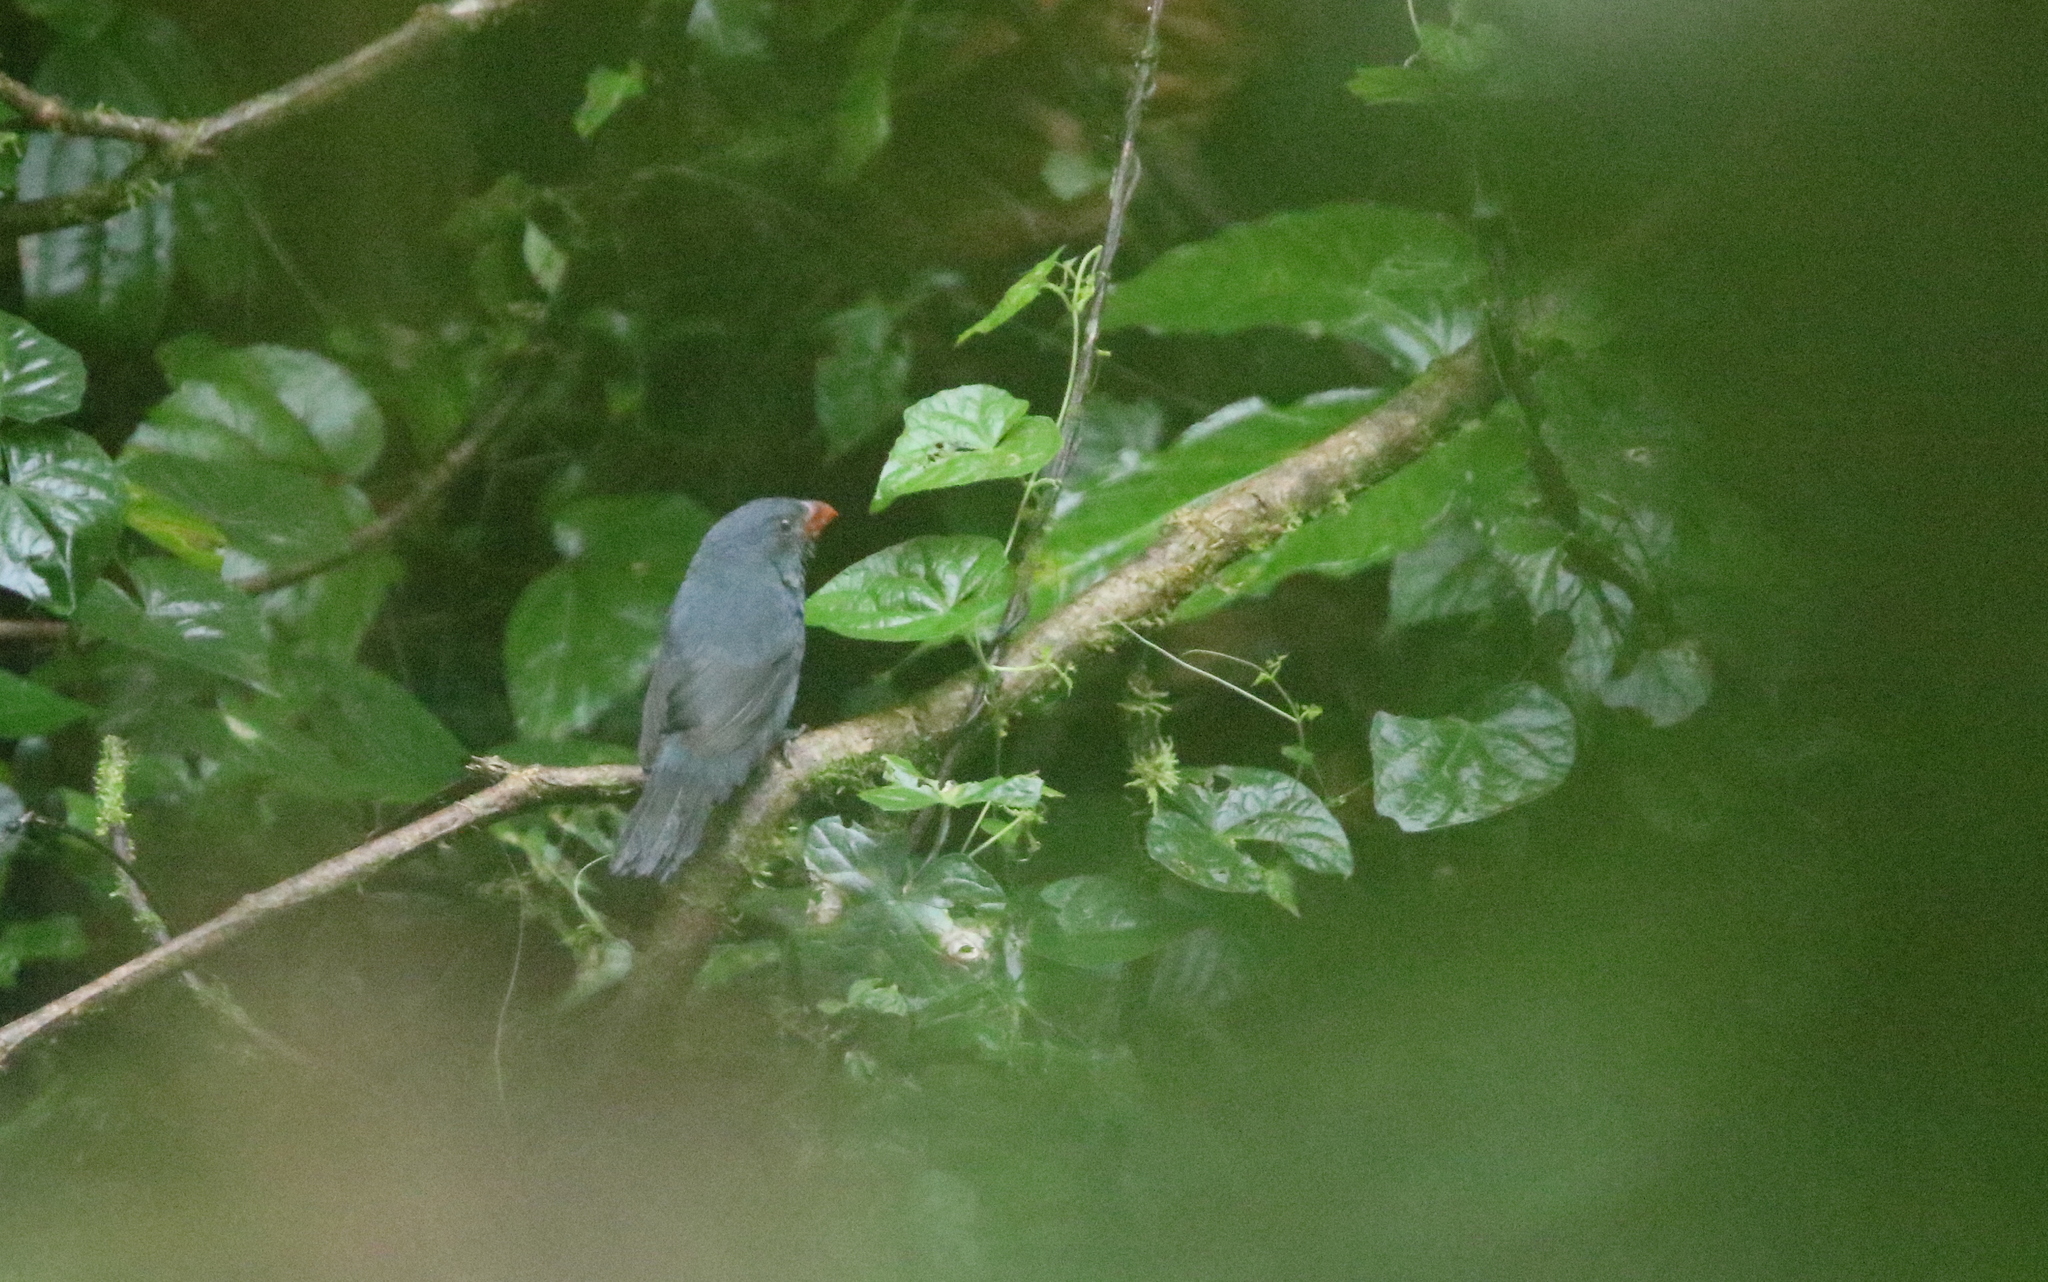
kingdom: Animalia
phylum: Chordata
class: Aves
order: Passeriformes
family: Thraupidae
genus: Saltator
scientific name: Saltator grossus
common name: Slate-colored grosbeak
